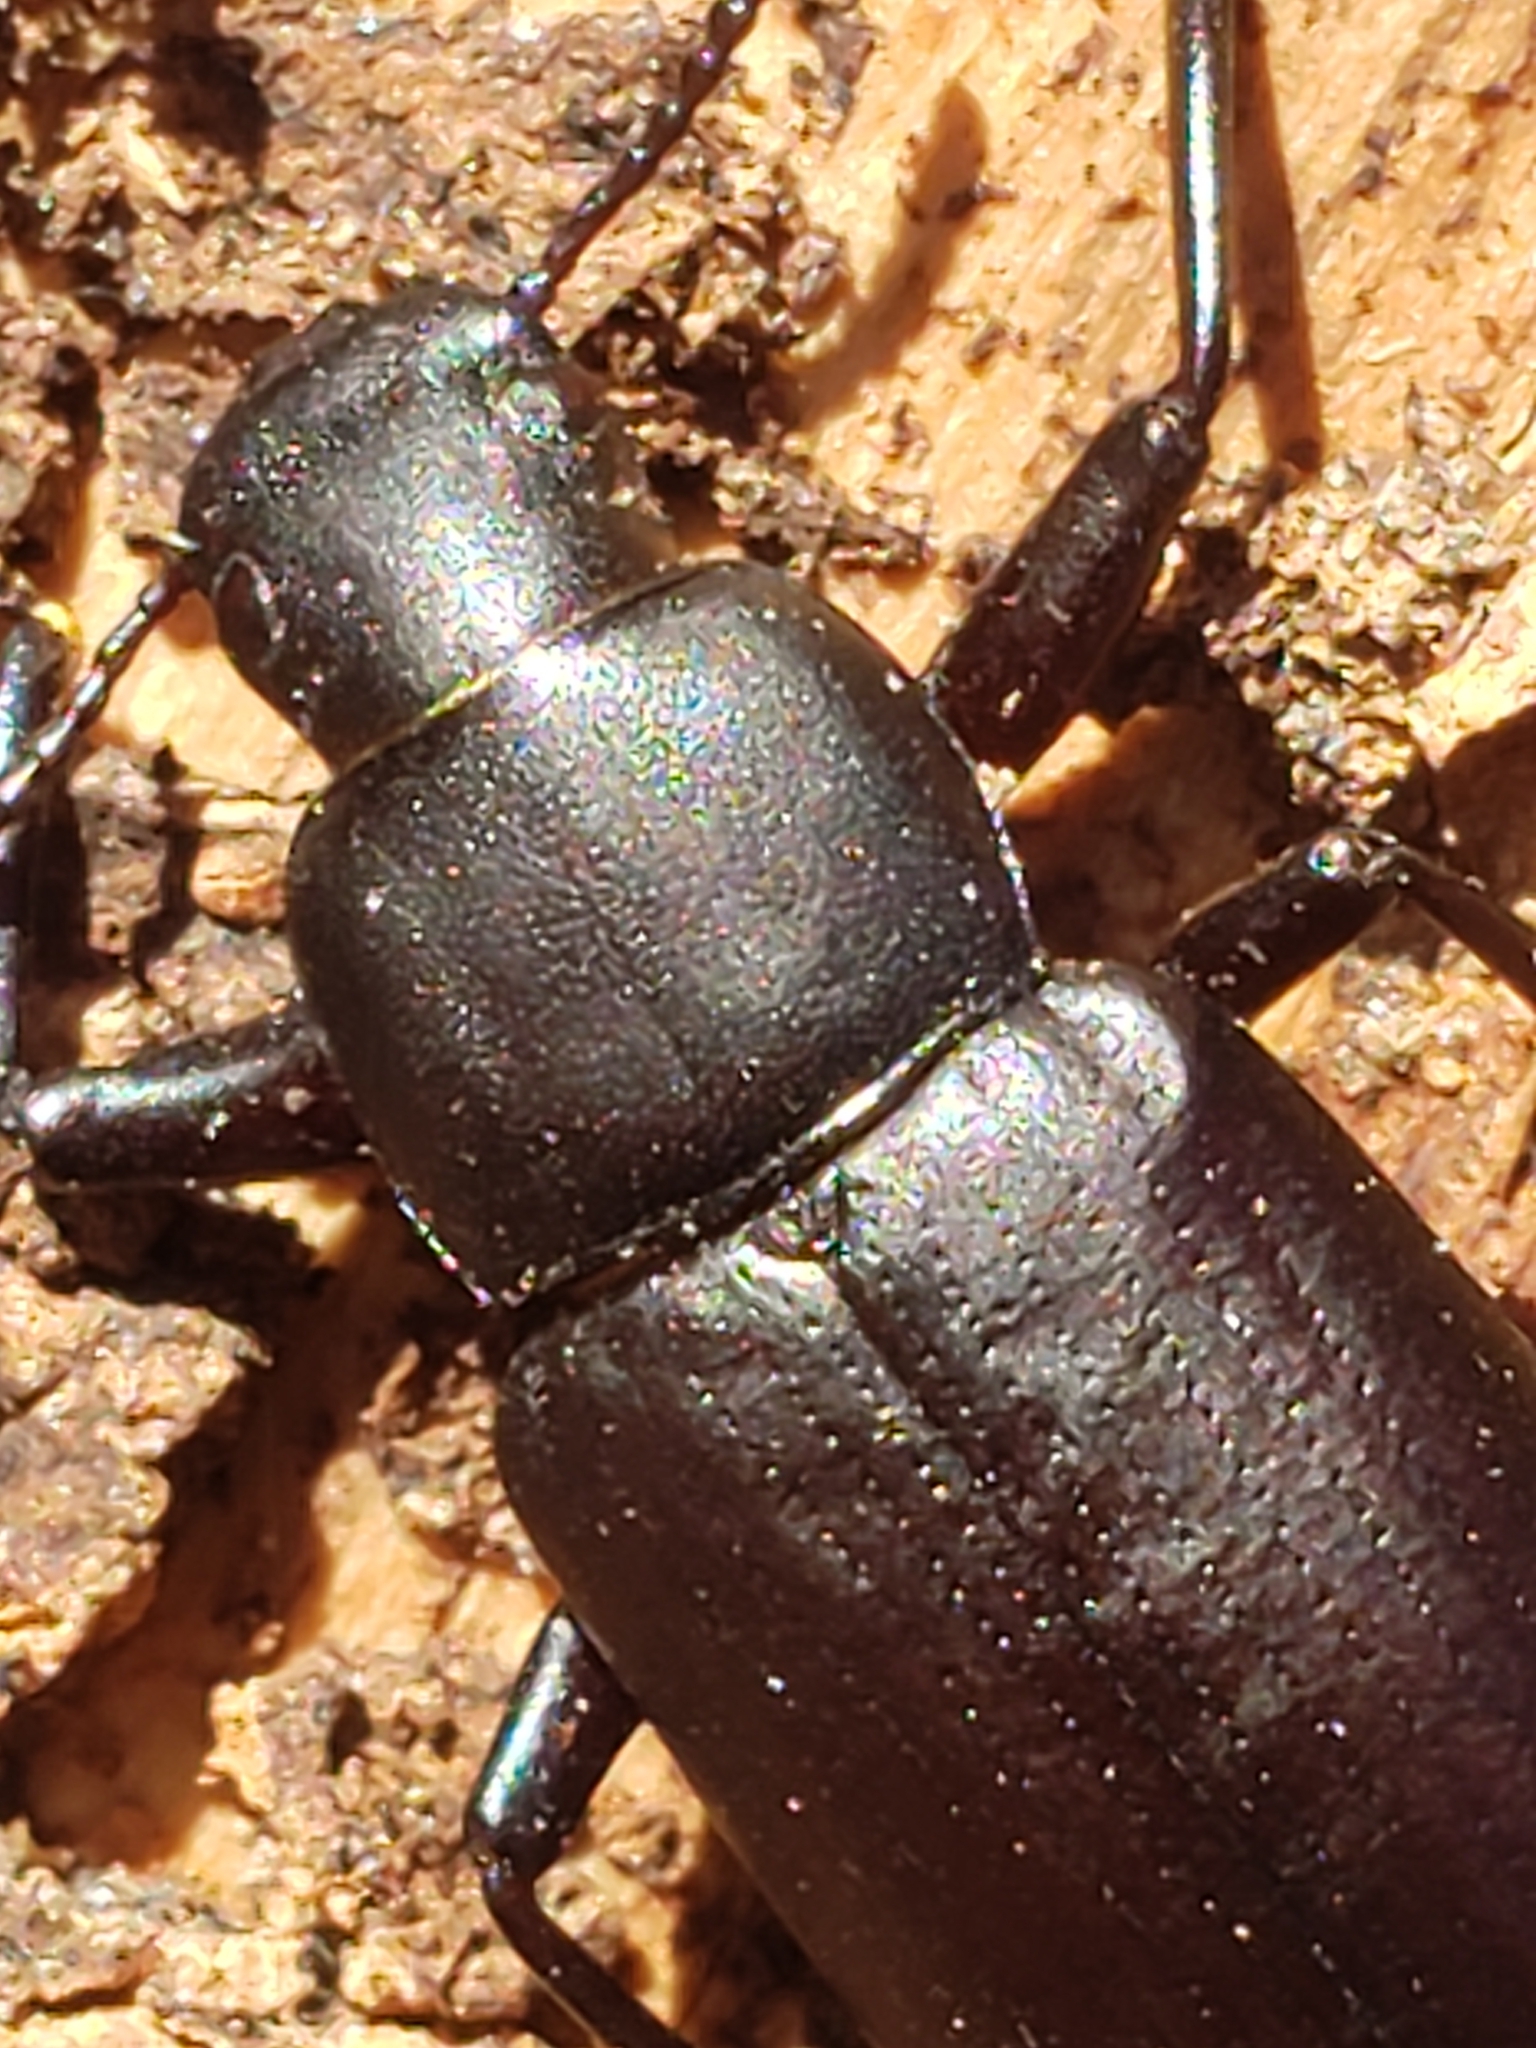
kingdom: Animalia
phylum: Arthropoda
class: Insecta
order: Coleoptera
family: Tenebrionidae
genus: Alobates
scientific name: Alobates
